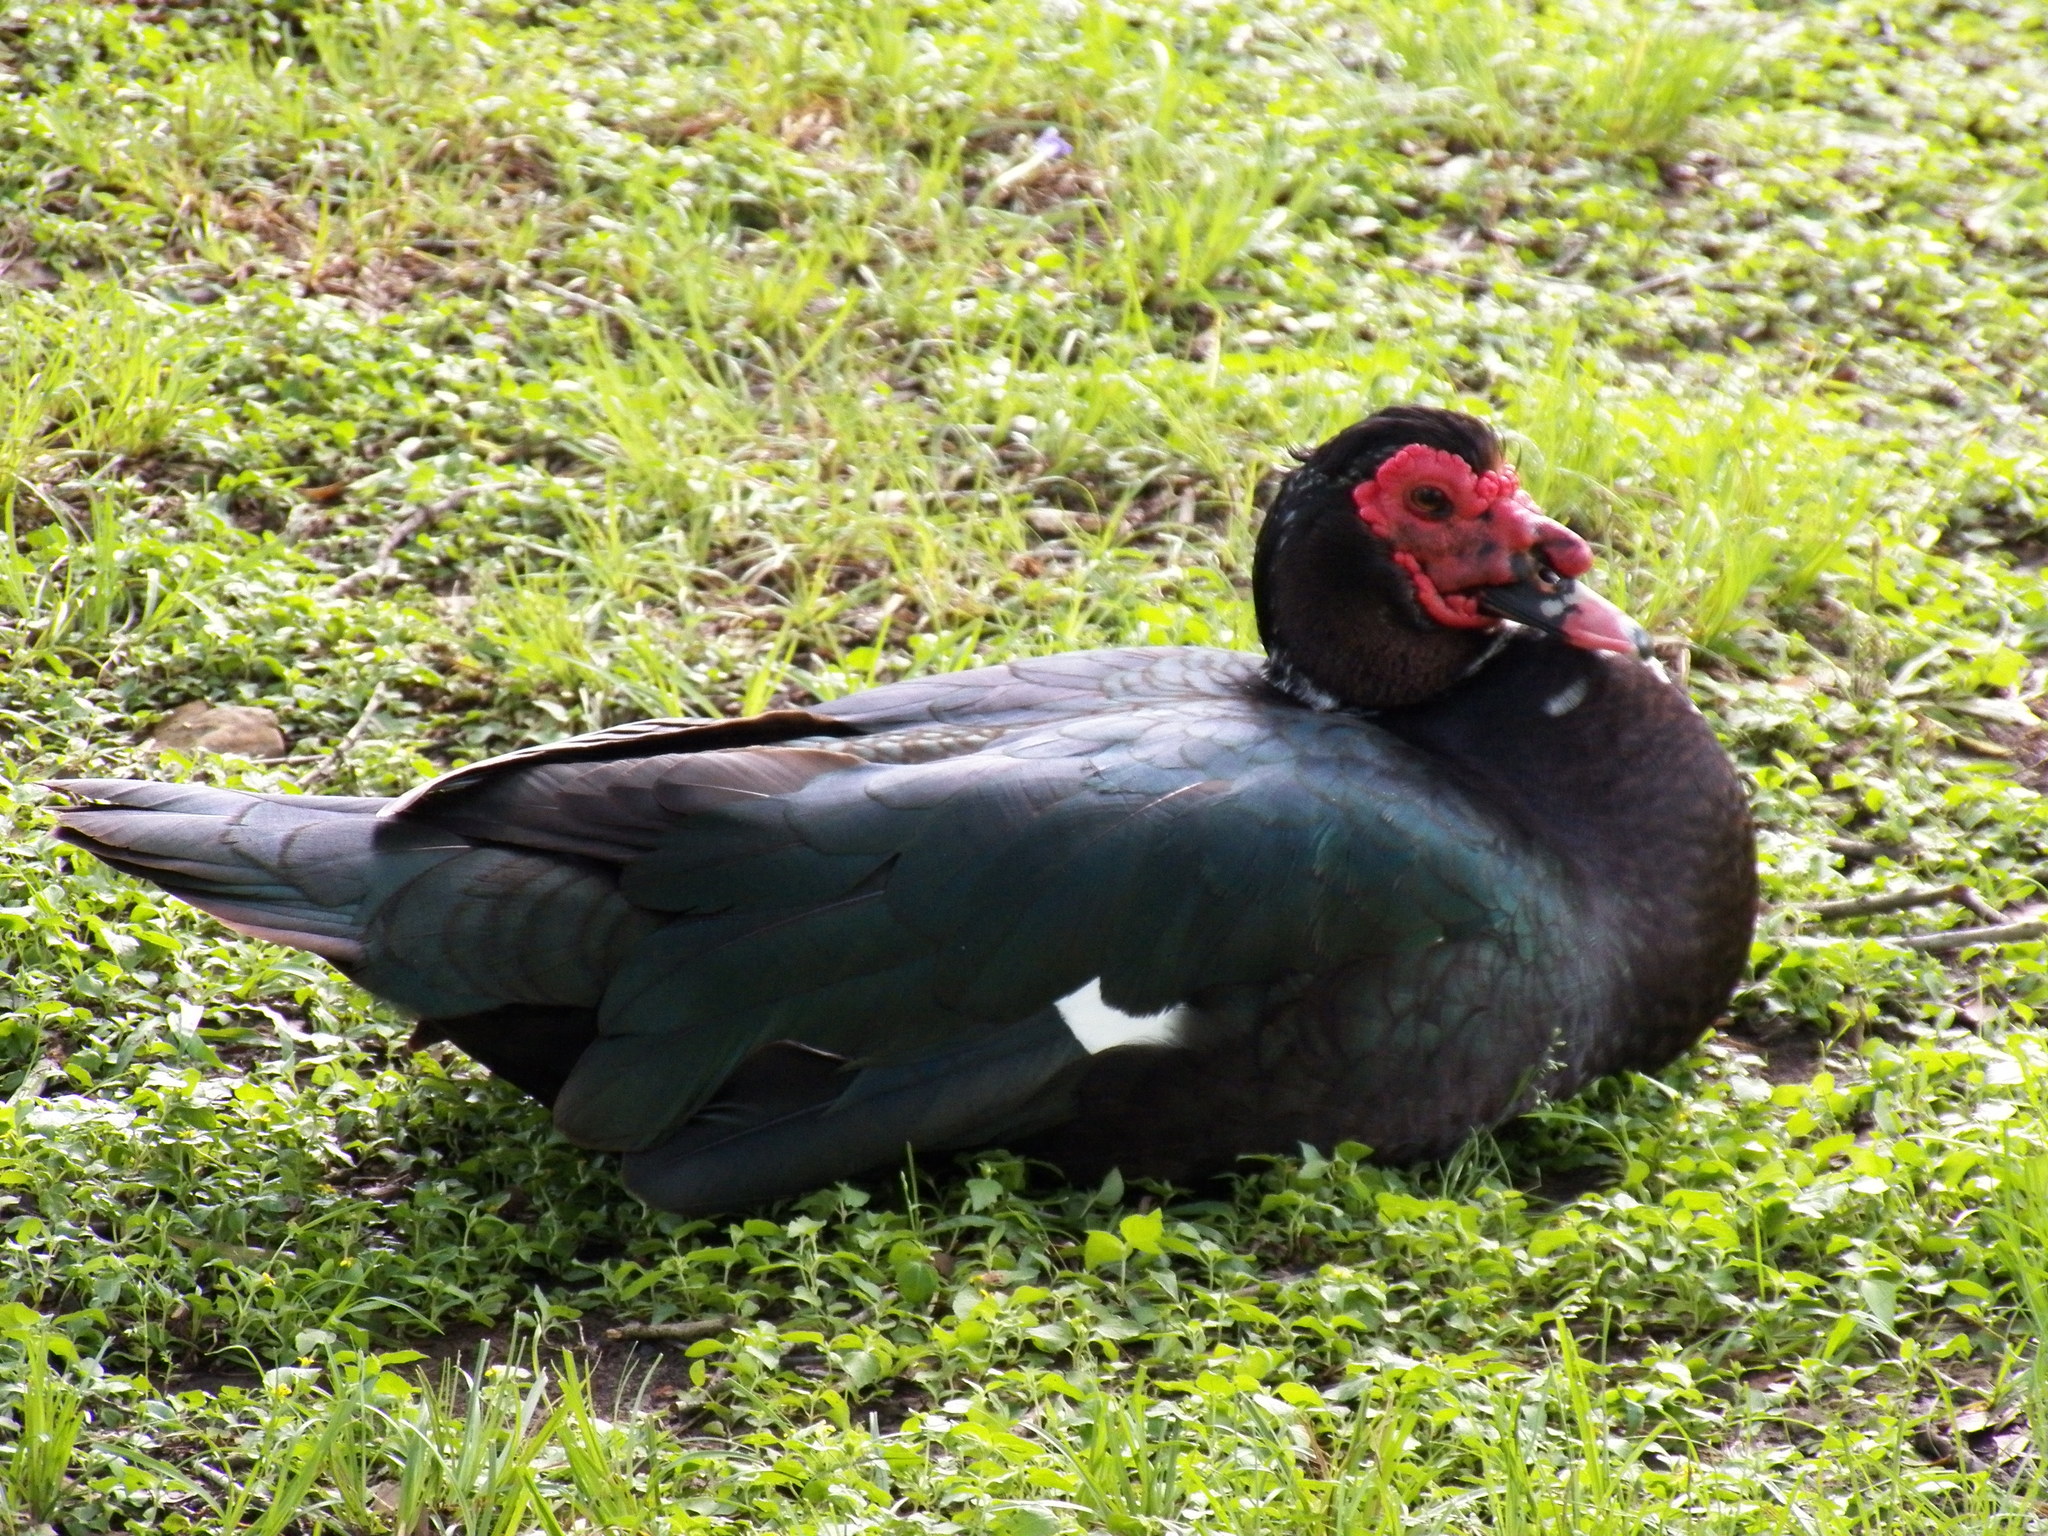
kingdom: Animalia
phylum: Chordata
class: Aves
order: Anseriformes
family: Anatidae
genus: Cairina
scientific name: Cairina moschata
